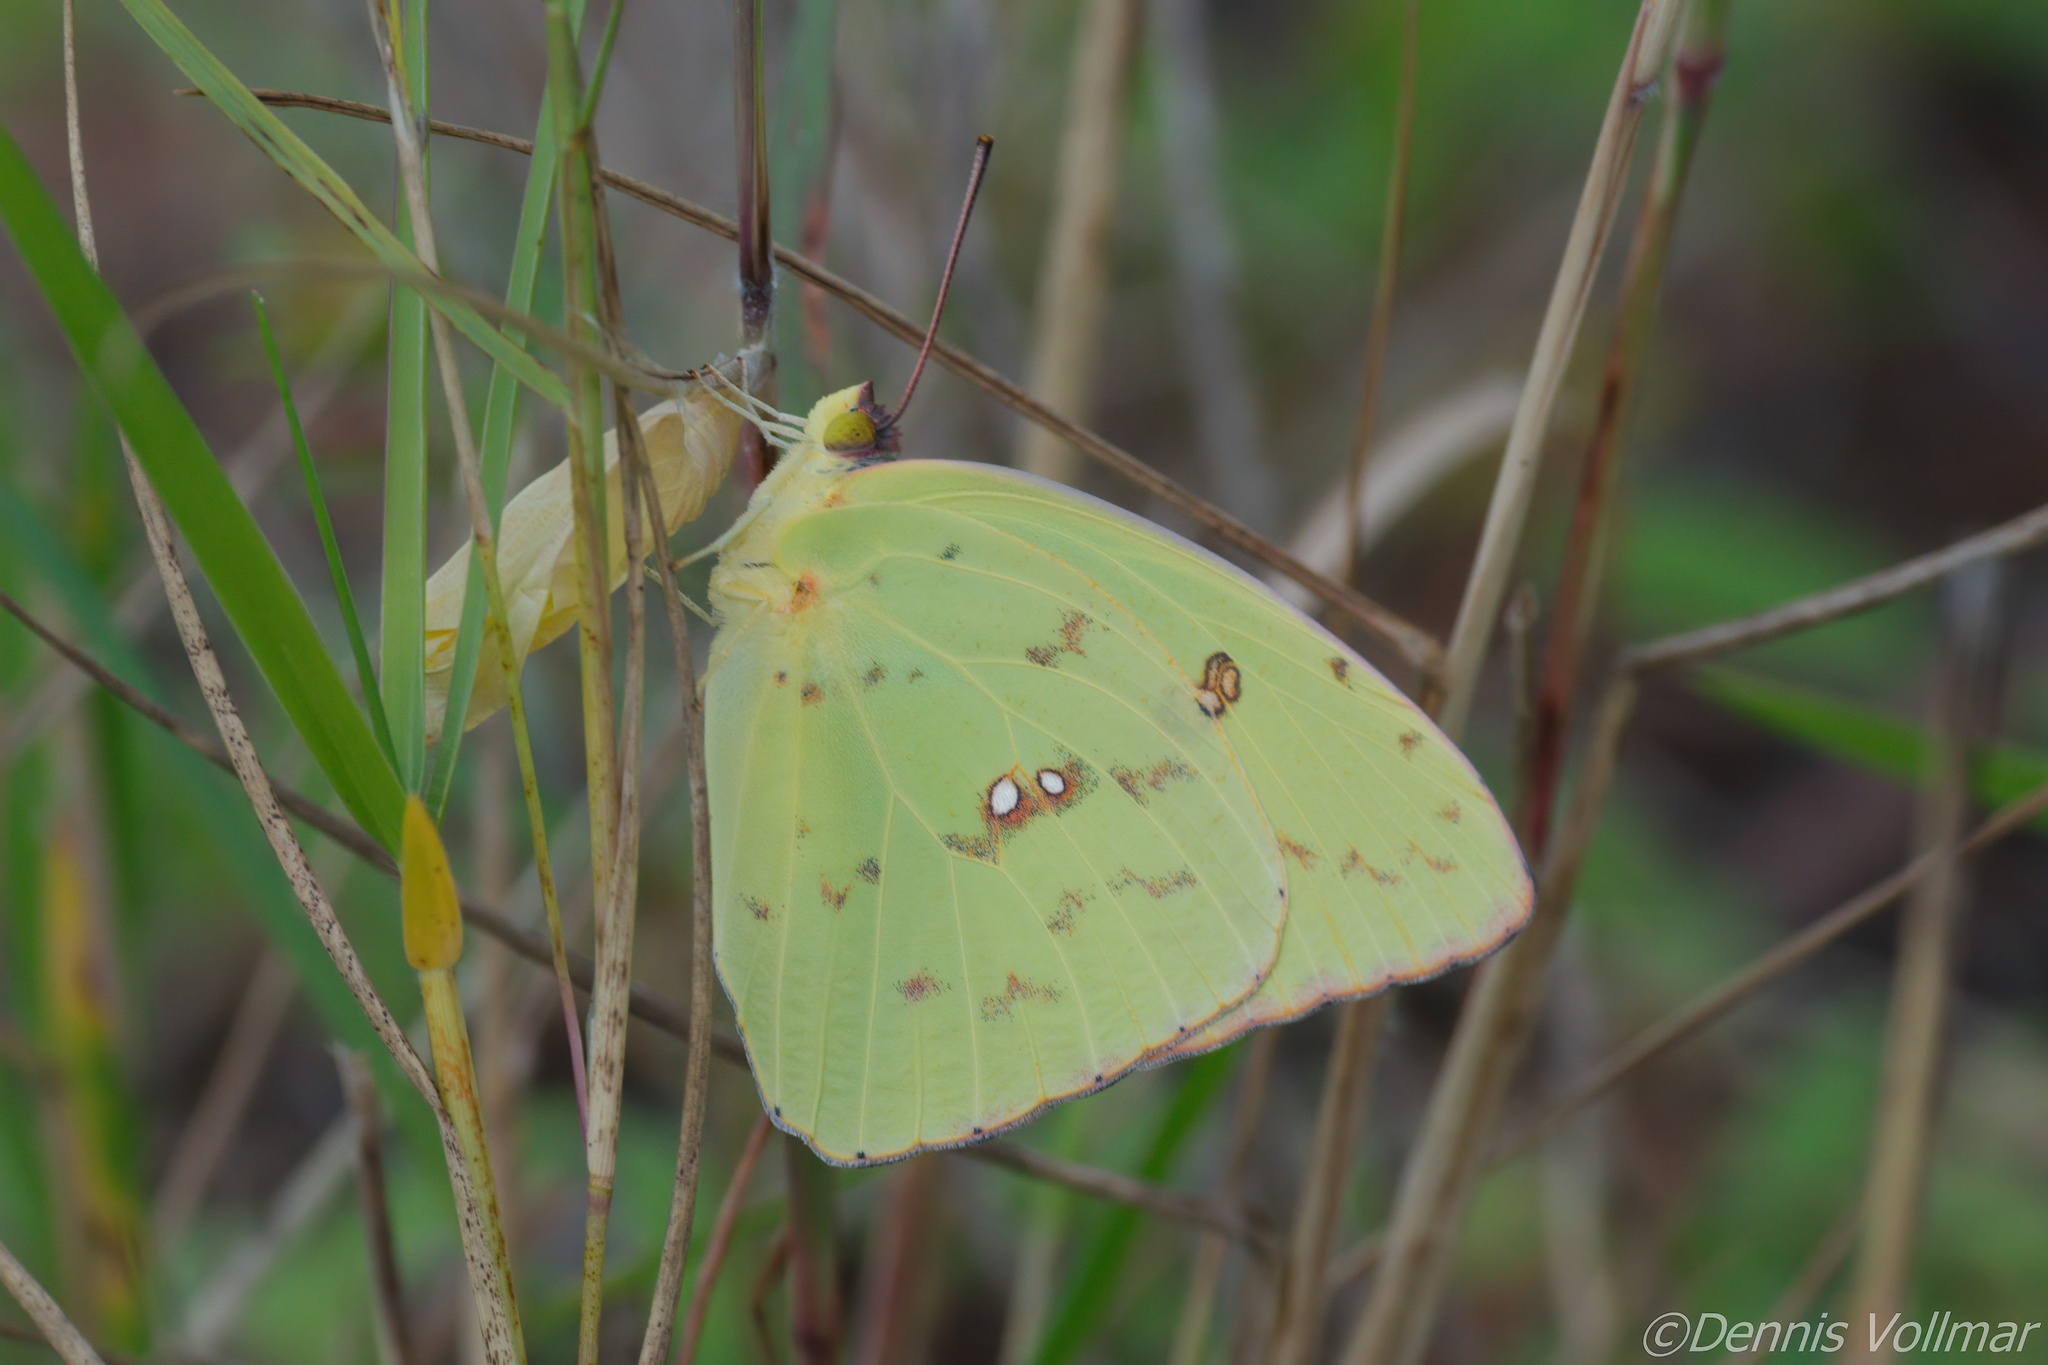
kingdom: Animalia
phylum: Arthropoda
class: Insecta
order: Lepidoptera
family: Pieridae
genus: Phoebis
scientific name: Phoebis sennae
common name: Cloudless sulphur
